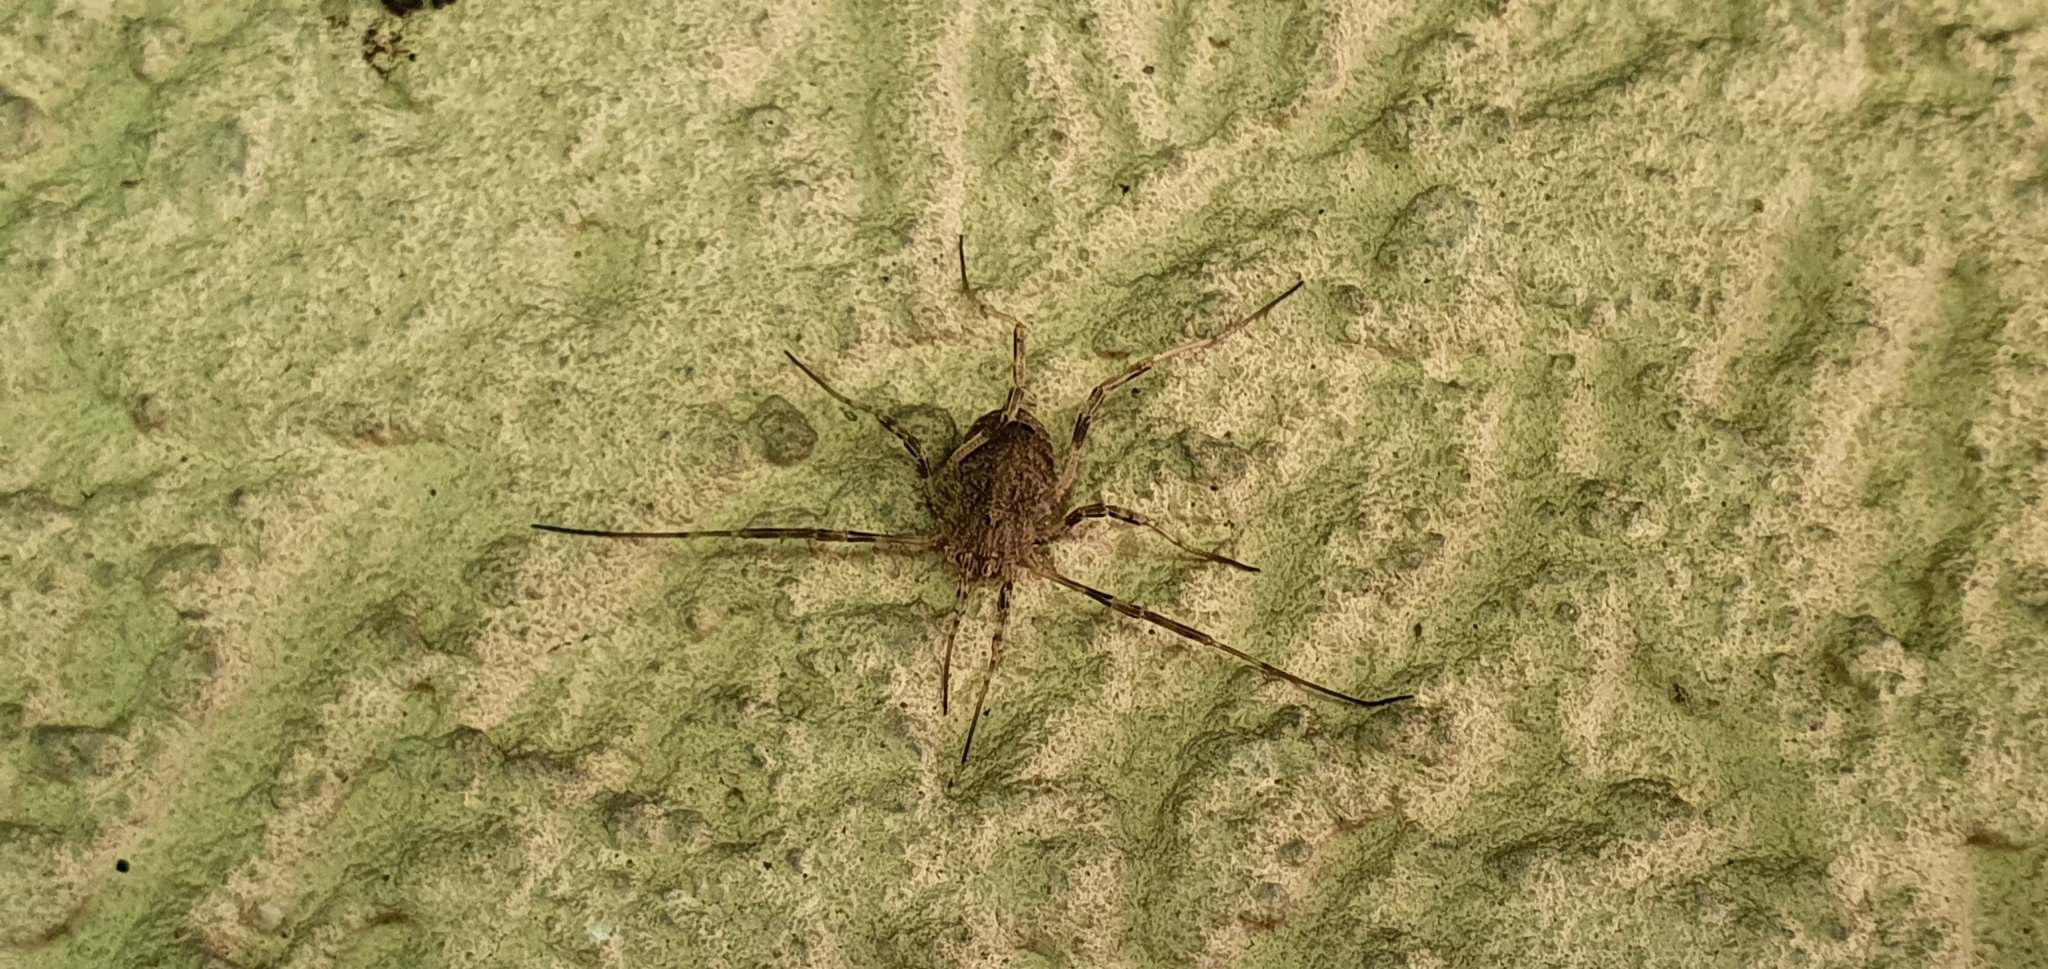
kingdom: Animalia
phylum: Arthropoda
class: Arachnida
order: Opiliones
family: Phalangiidae
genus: Odiellus
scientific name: Odiellus spinosus
